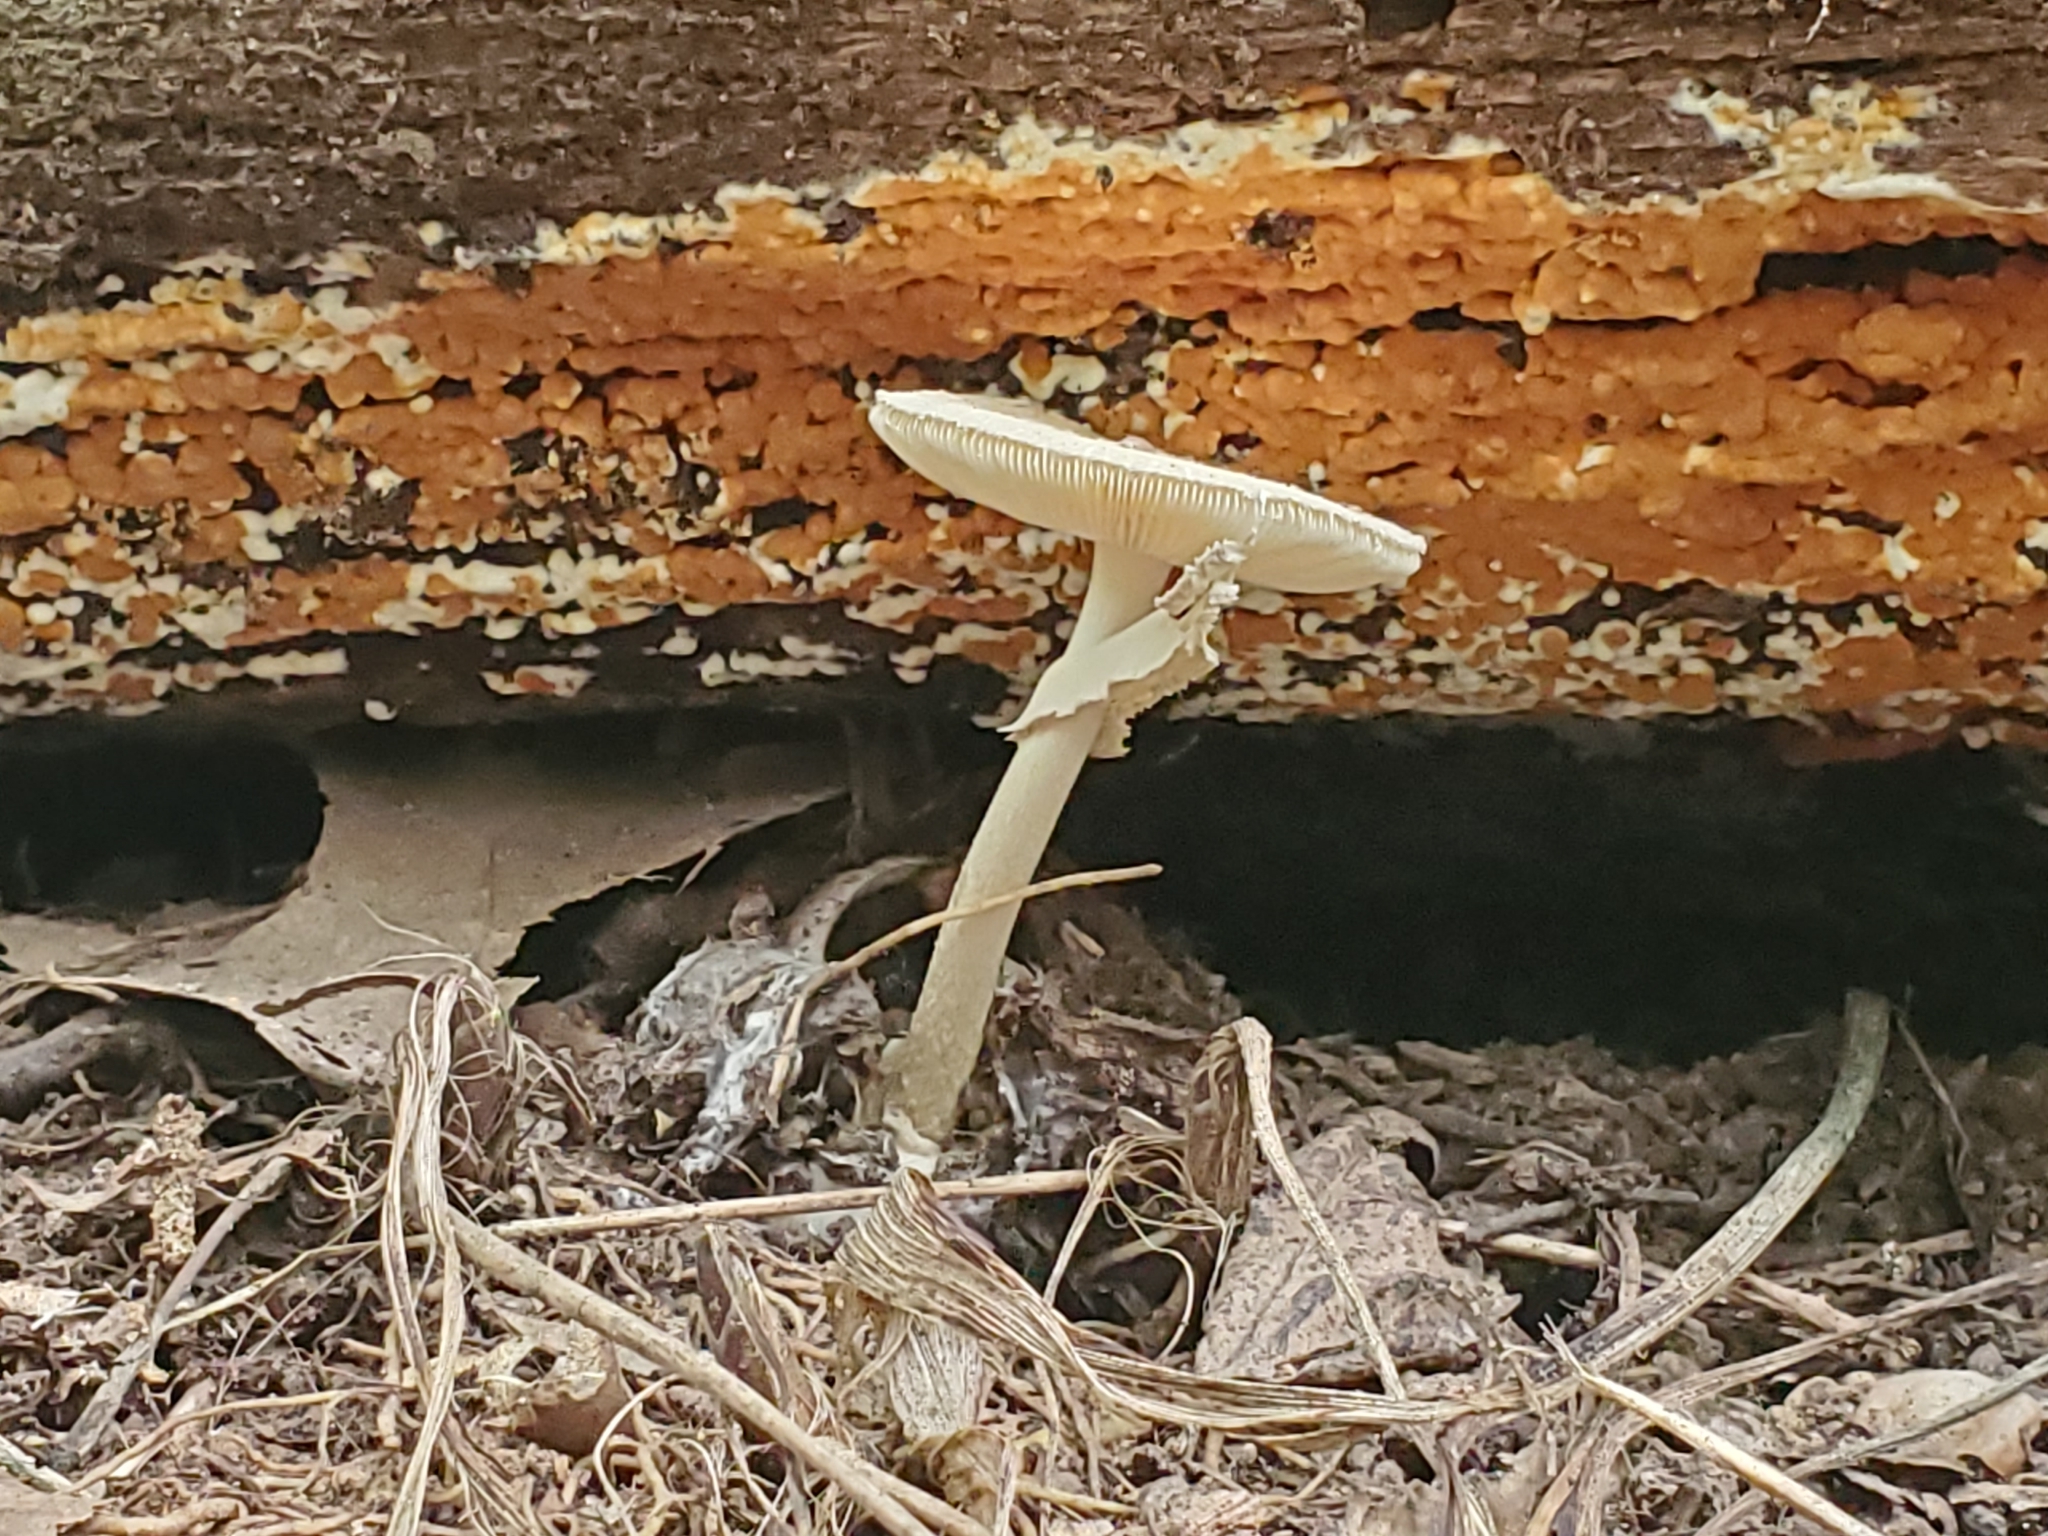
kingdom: Fungi
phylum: Basidiomycota
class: Agaricomycetes
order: Agaricales
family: Amanitaceae
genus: Amanita
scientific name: Amanita lavendula
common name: Coker's lavender staining amanita
